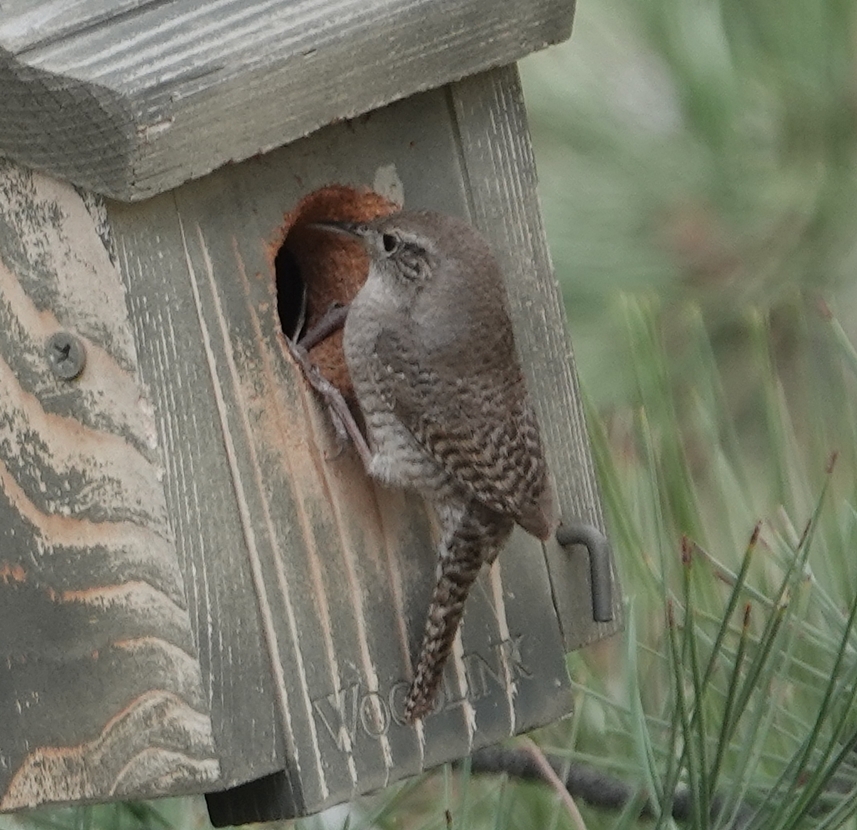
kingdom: Animalia
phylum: Chordata
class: Aves
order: Passeriformes
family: Troglodytidae
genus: Troglodytes
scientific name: Troglodytes aedon
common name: House wren
